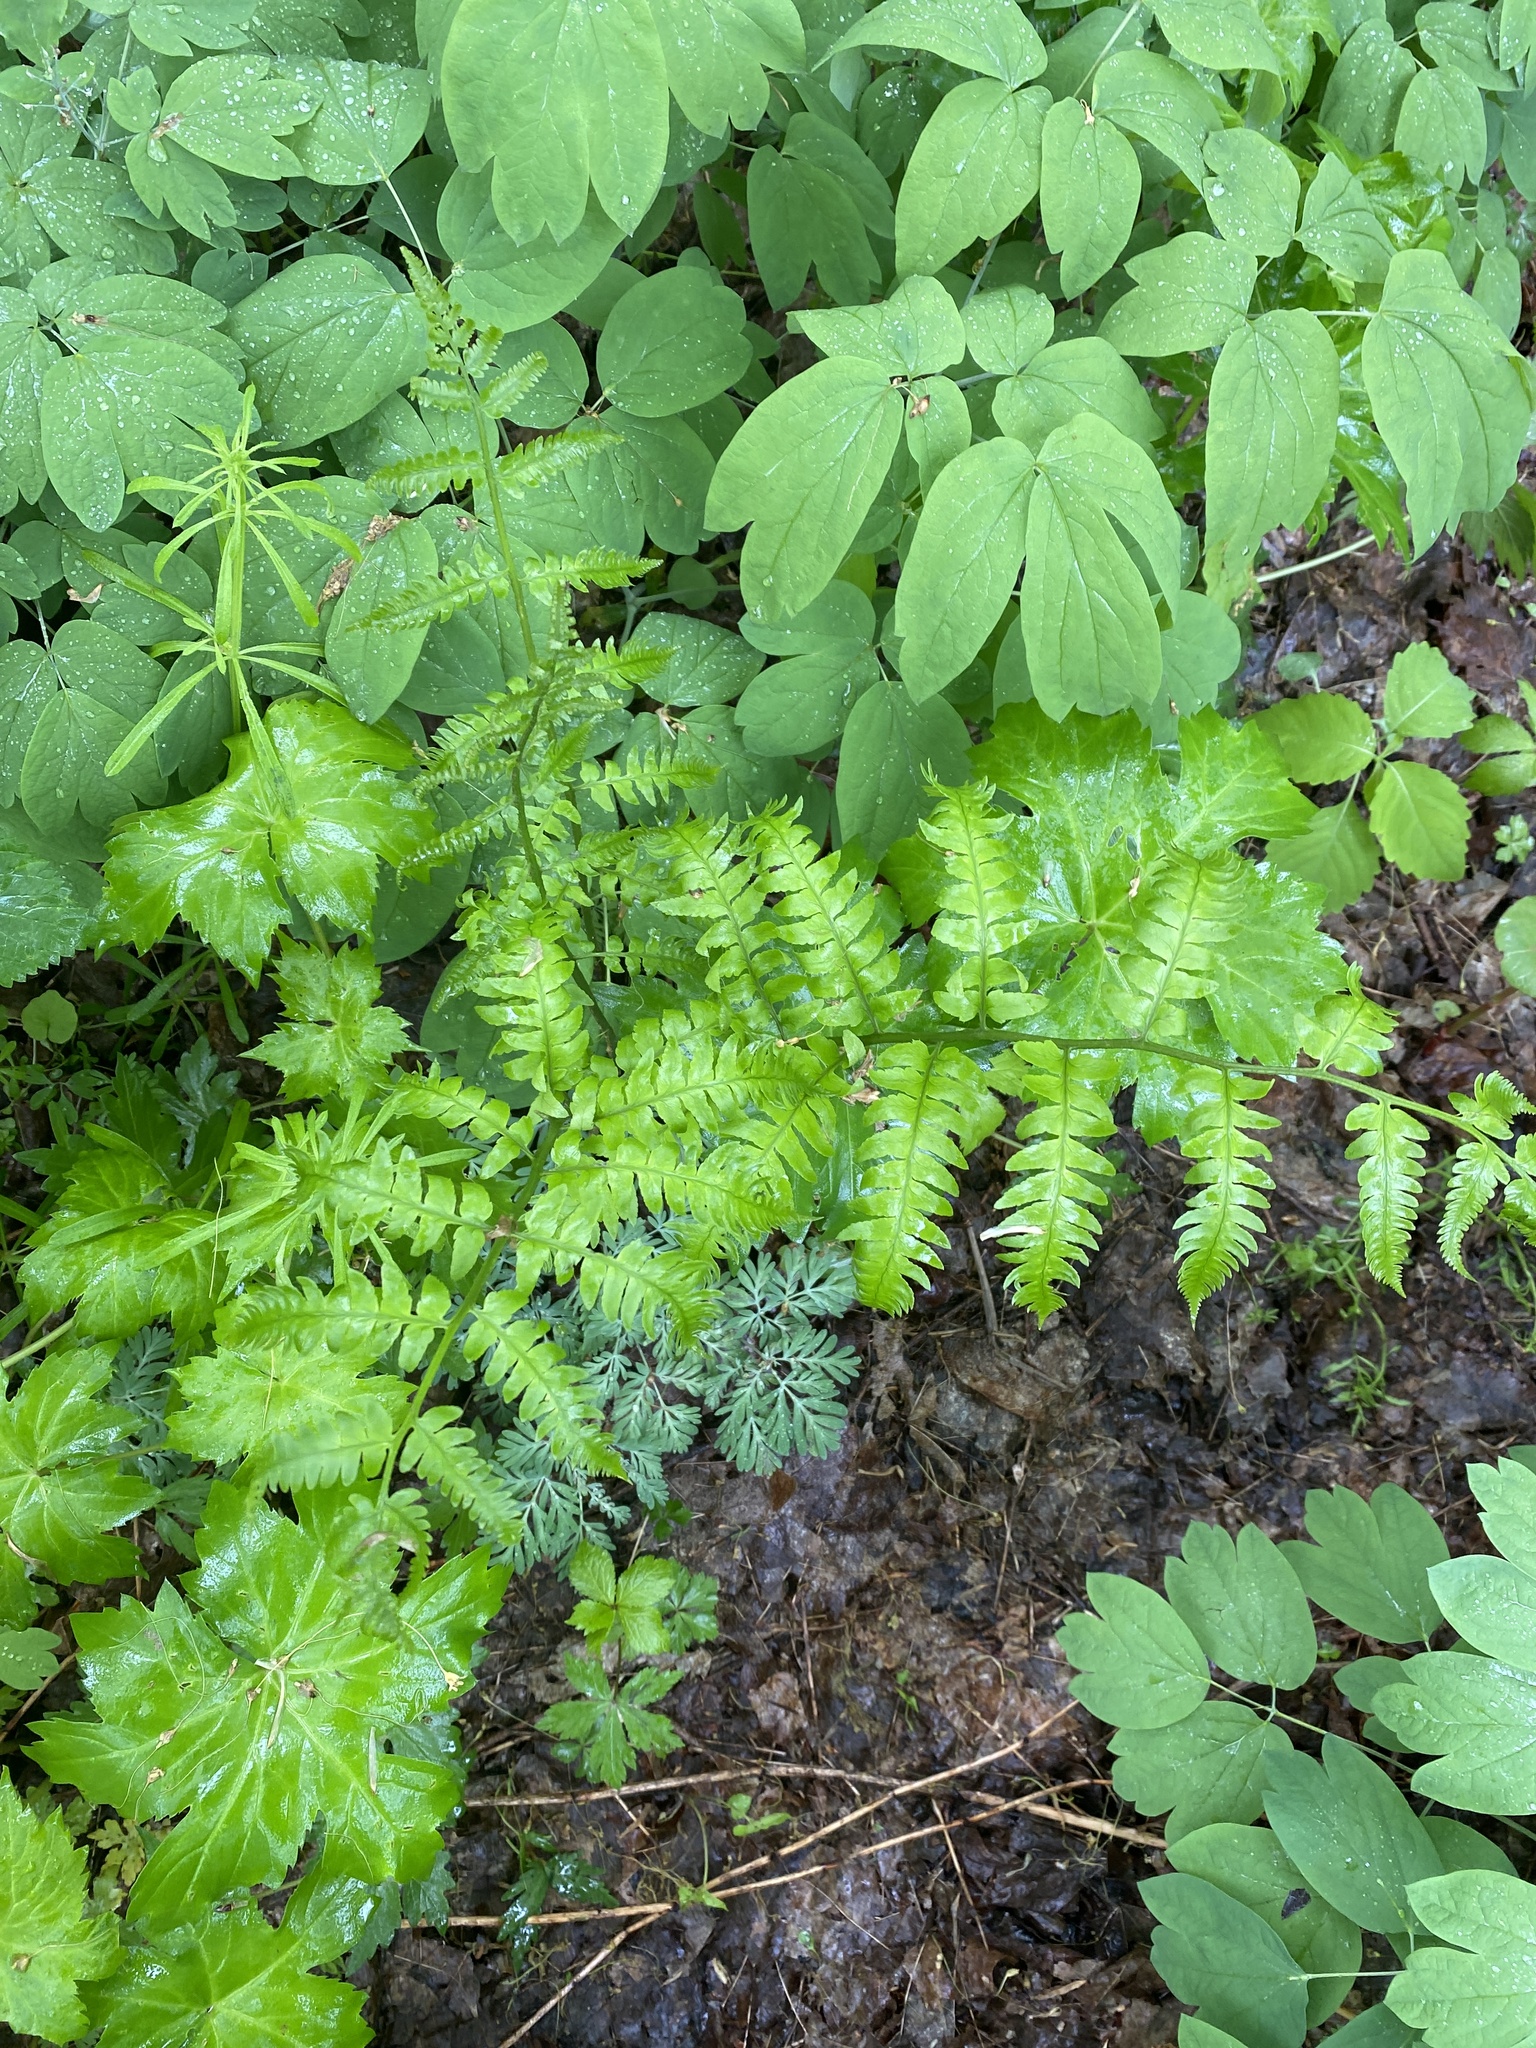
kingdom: Plantae
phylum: Tracheophyta
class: Polypodiopsida
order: Polypodiales
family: Dryopteridaceae
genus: Dryopteris
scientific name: Dryopteris goldieana
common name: Goldie's fern
